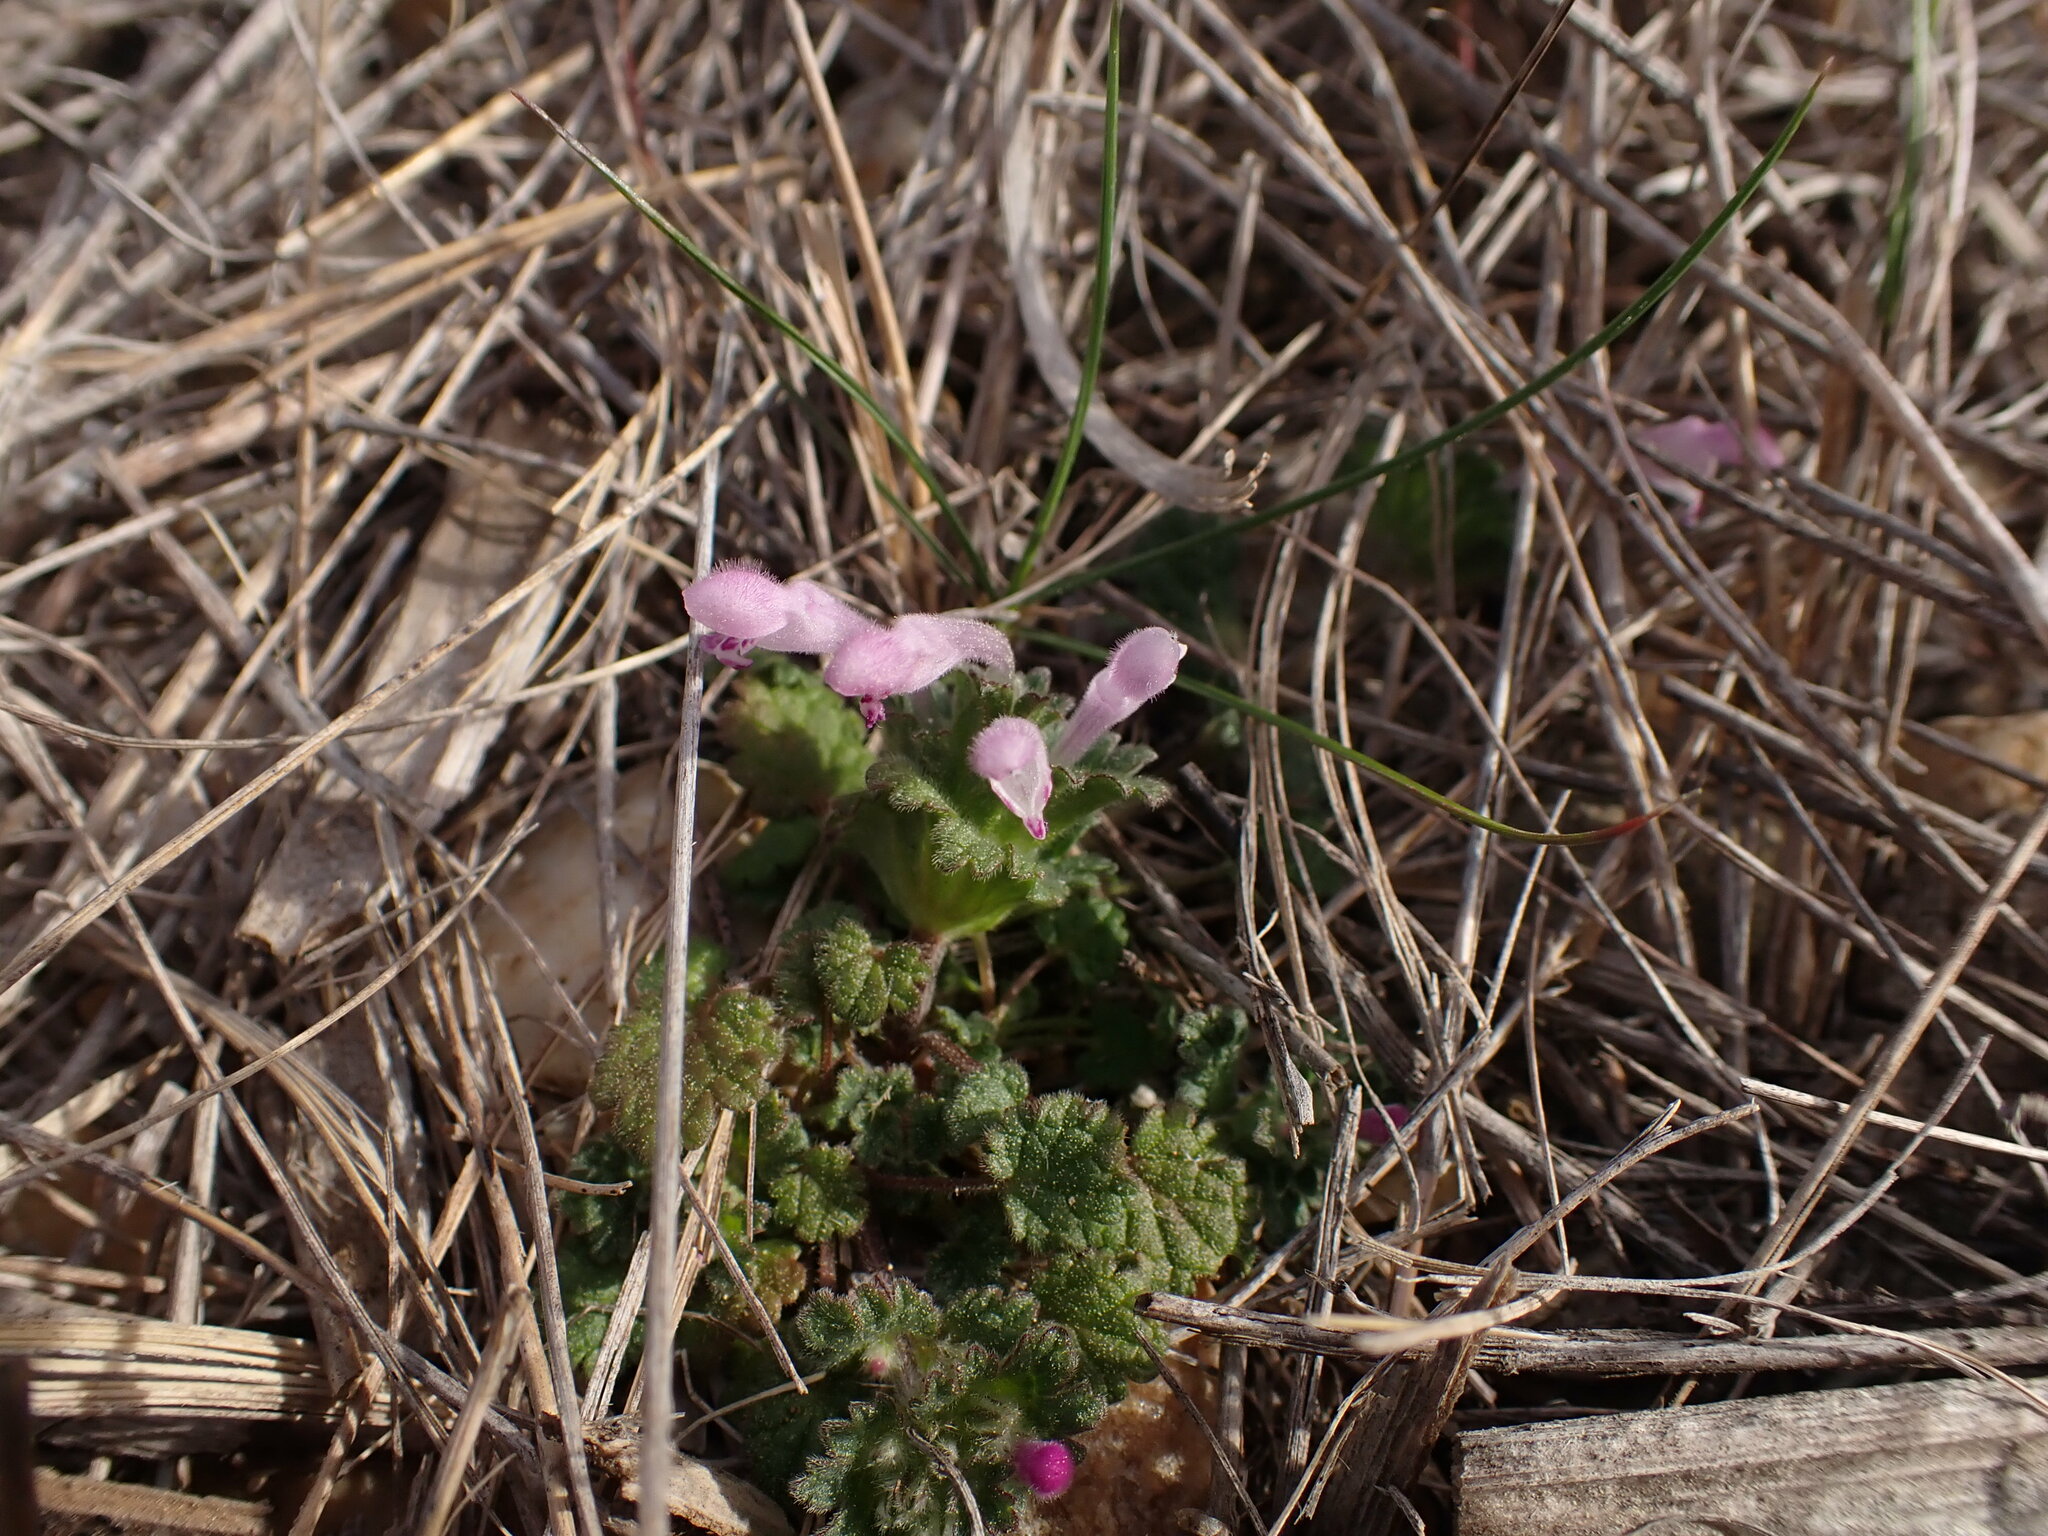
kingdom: Plantae
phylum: Tracheophyta
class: Magnoliopsida
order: Lamiales
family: Lamiaceae
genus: Lamium
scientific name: Lamium amplexicaule
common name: Henbit dead-nettle
